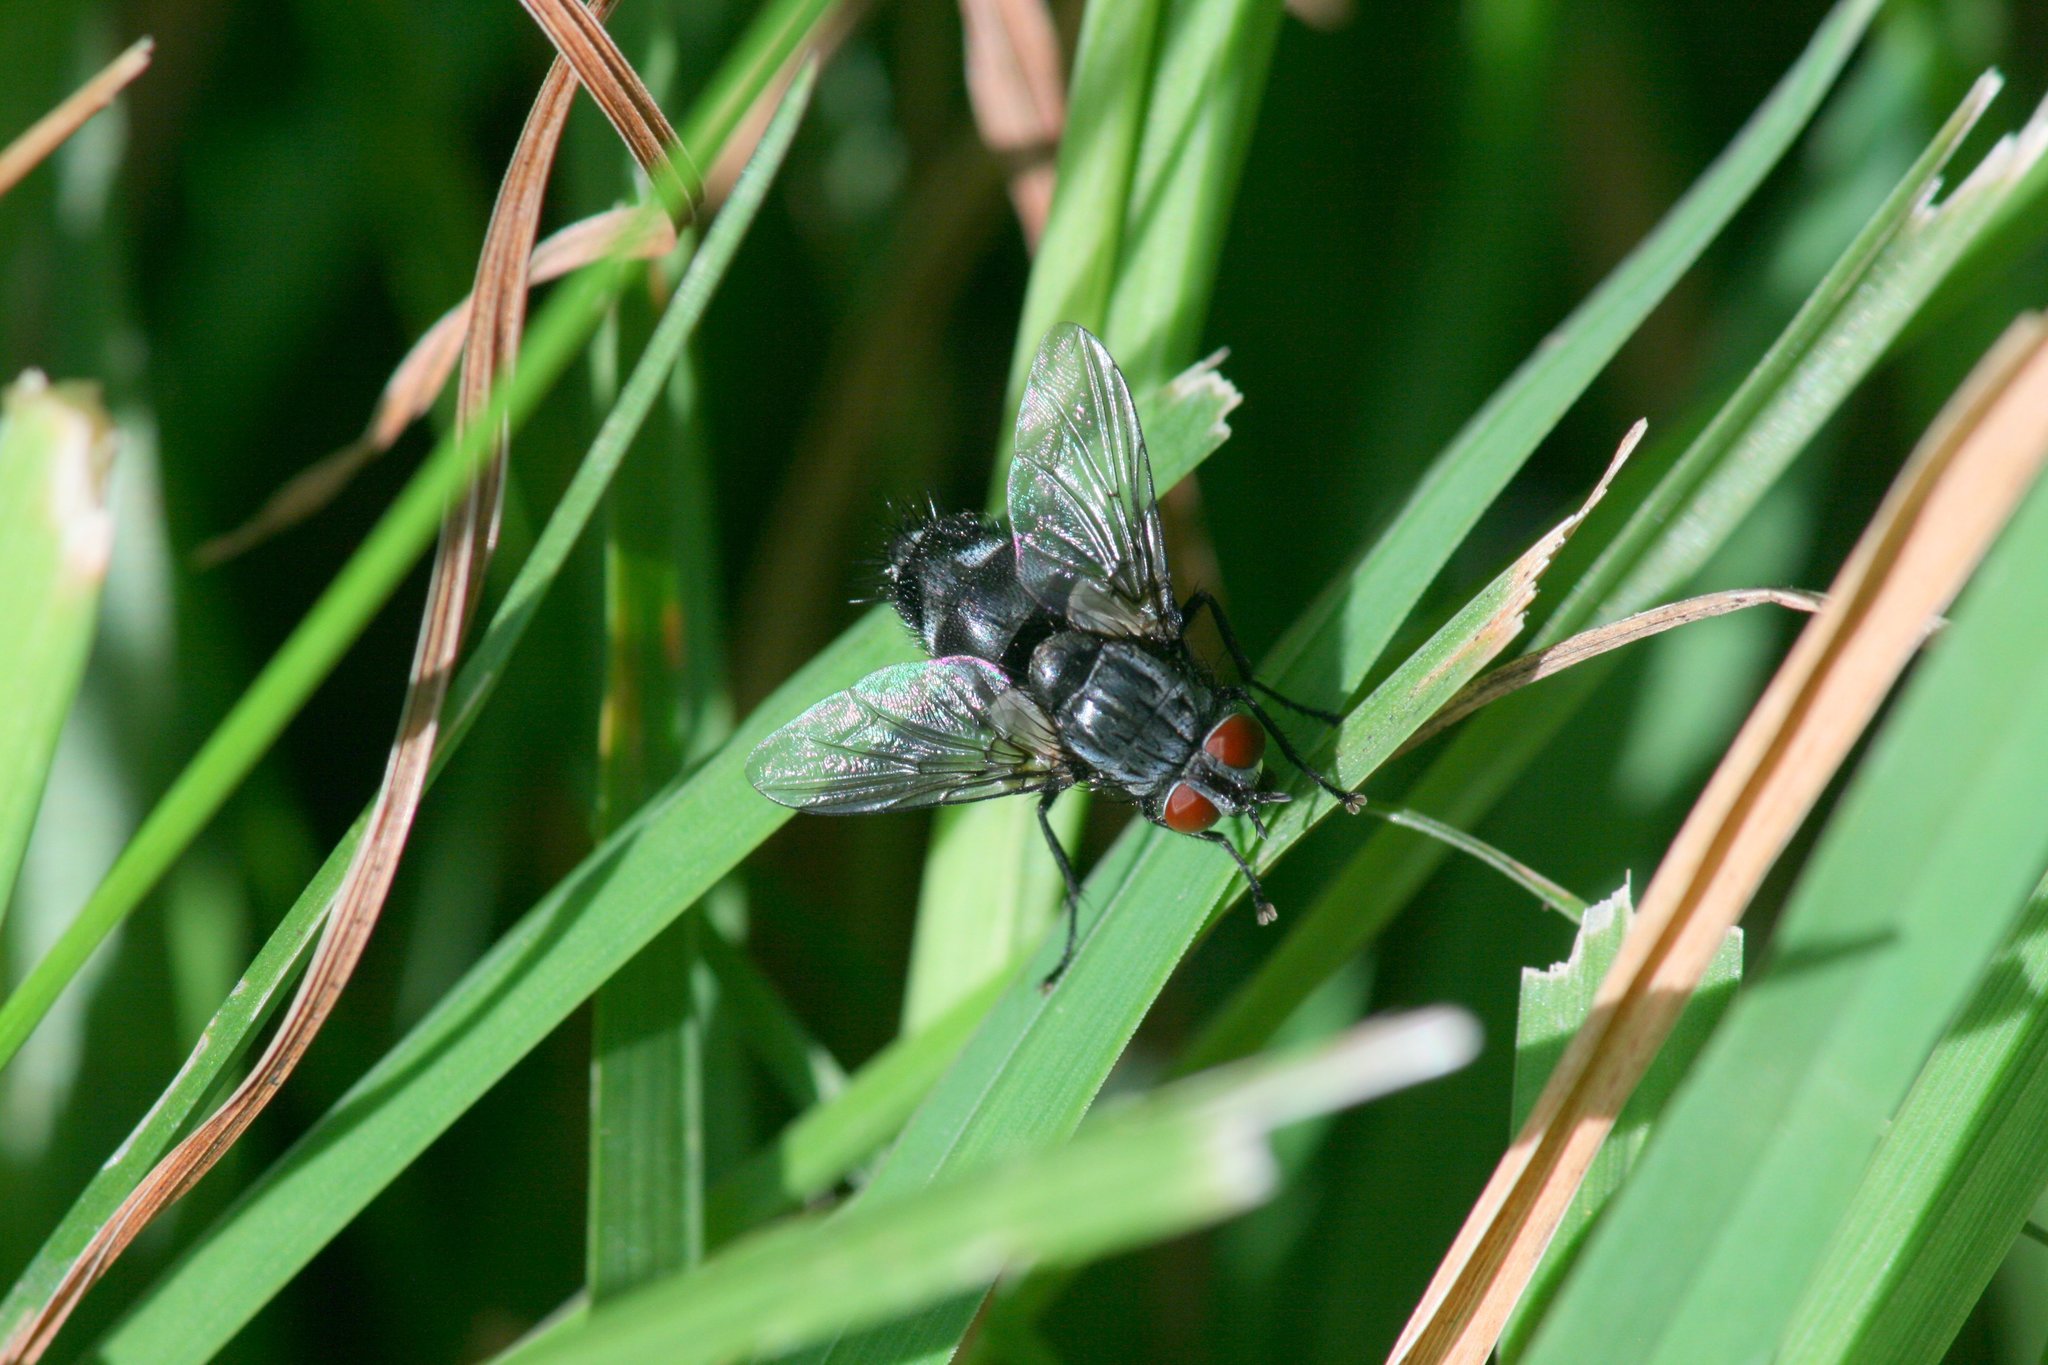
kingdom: Animalia
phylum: Arthropoda
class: Insecta
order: Diptera
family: Tachinidae
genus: Sturmia
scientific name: Sturmia bella
